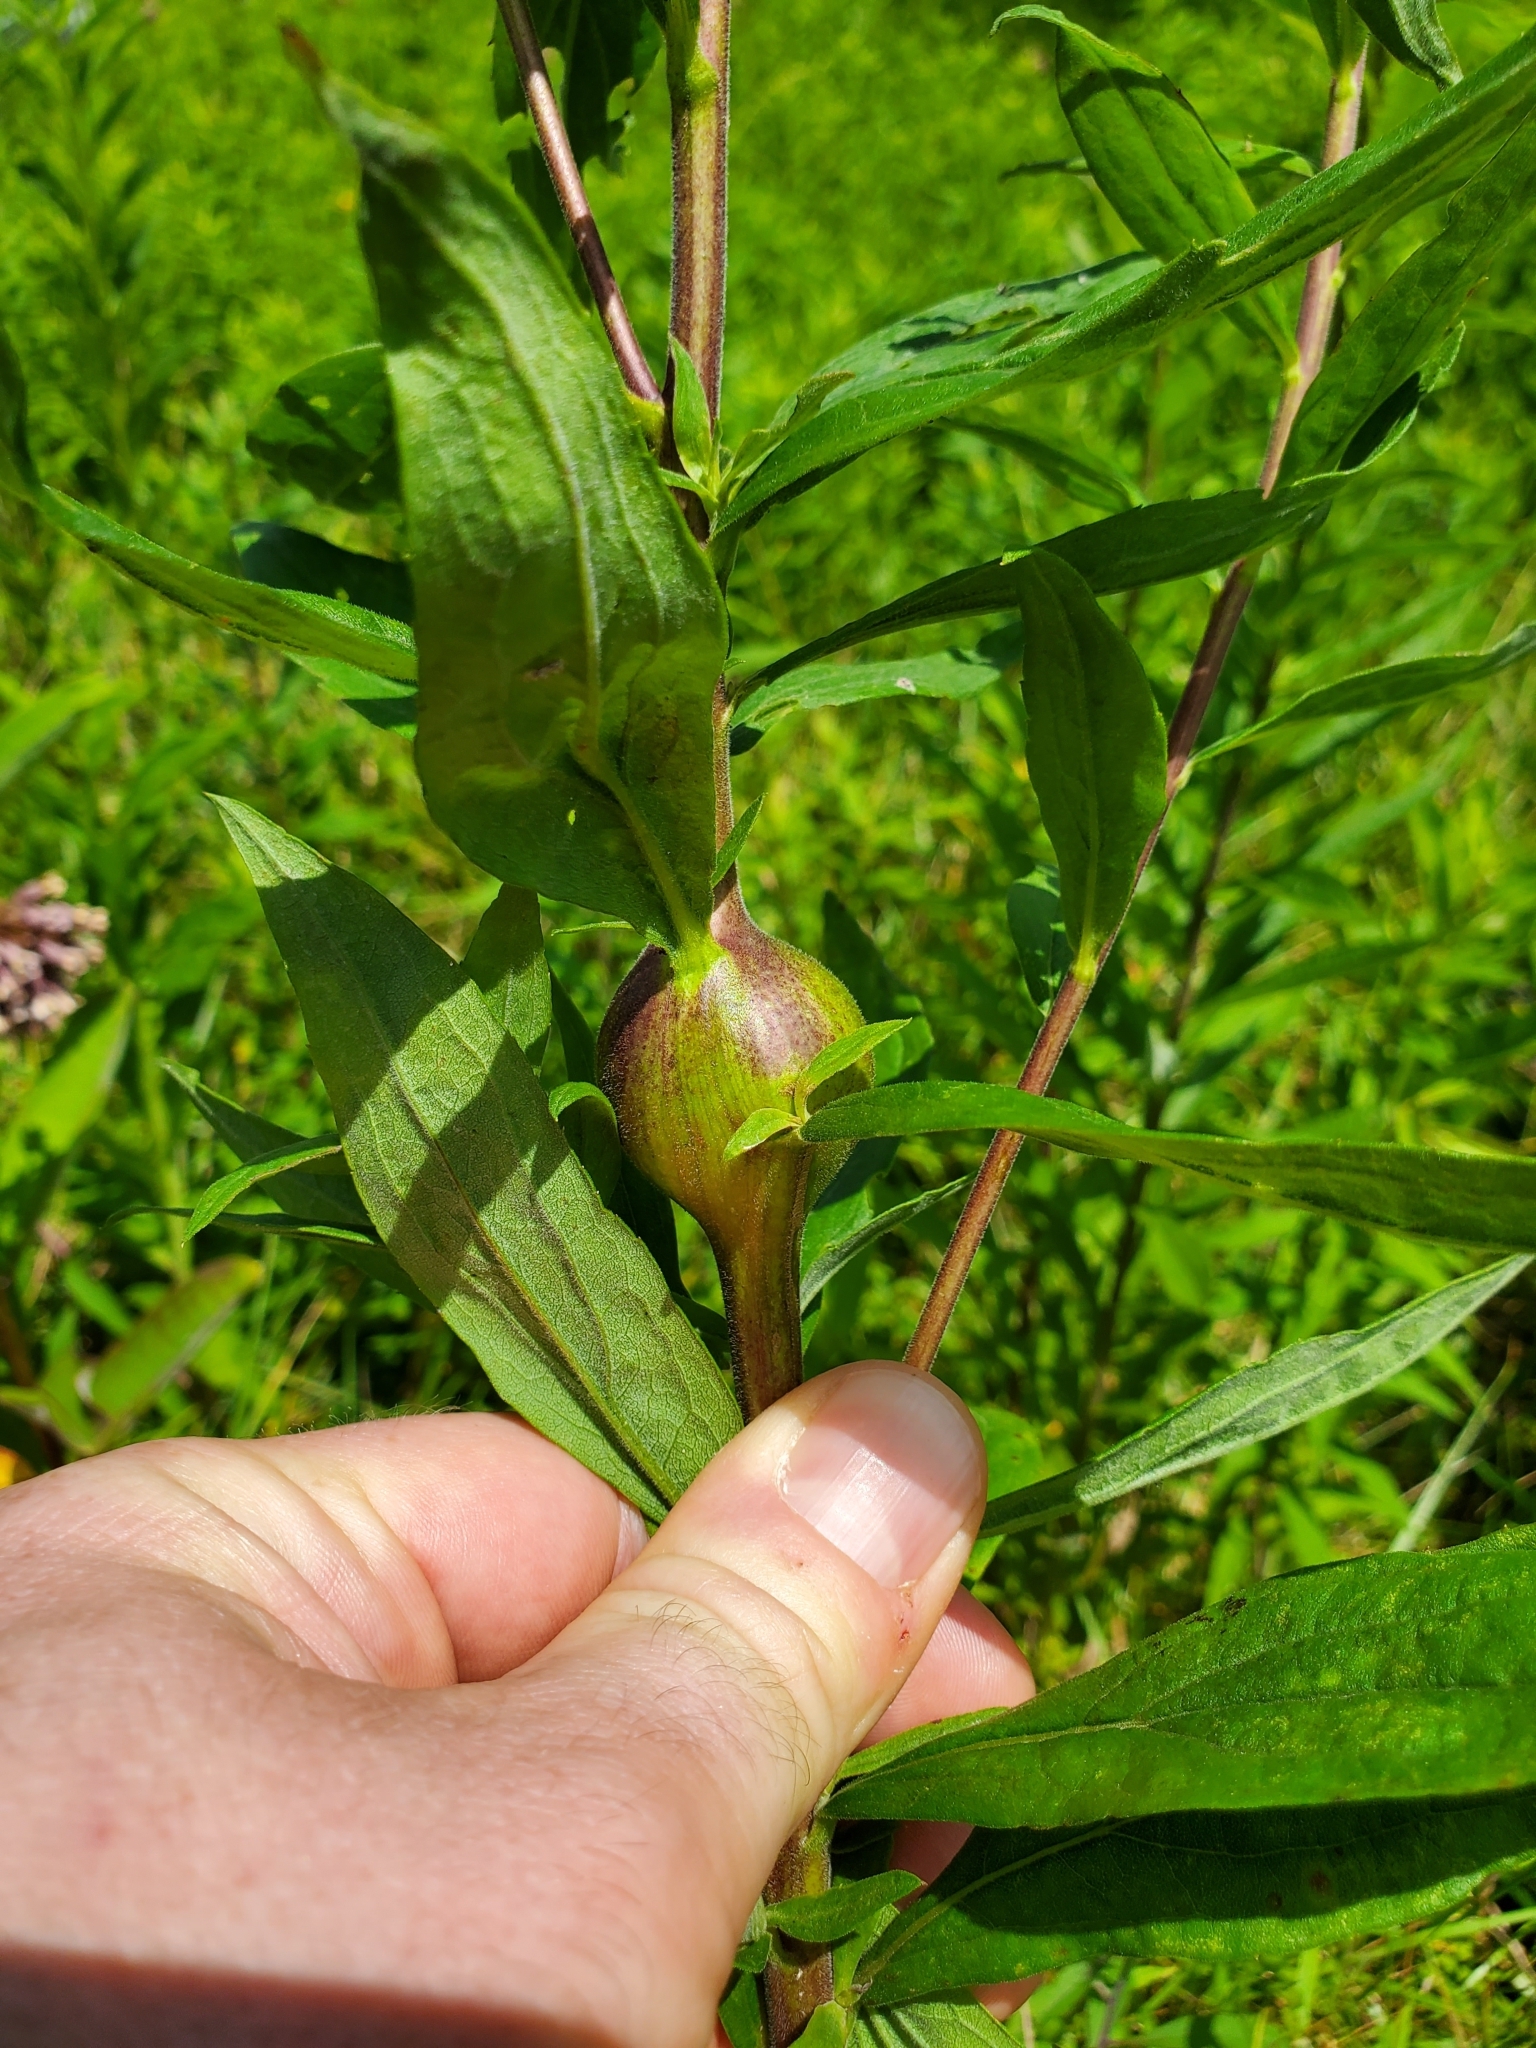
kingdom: Animalia
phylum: Arthropoda
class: Insecta
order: Diptera
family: Tephritidae
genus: Eurosta
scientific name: Eurosta solidaginis
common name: Goldenrod gall fly
